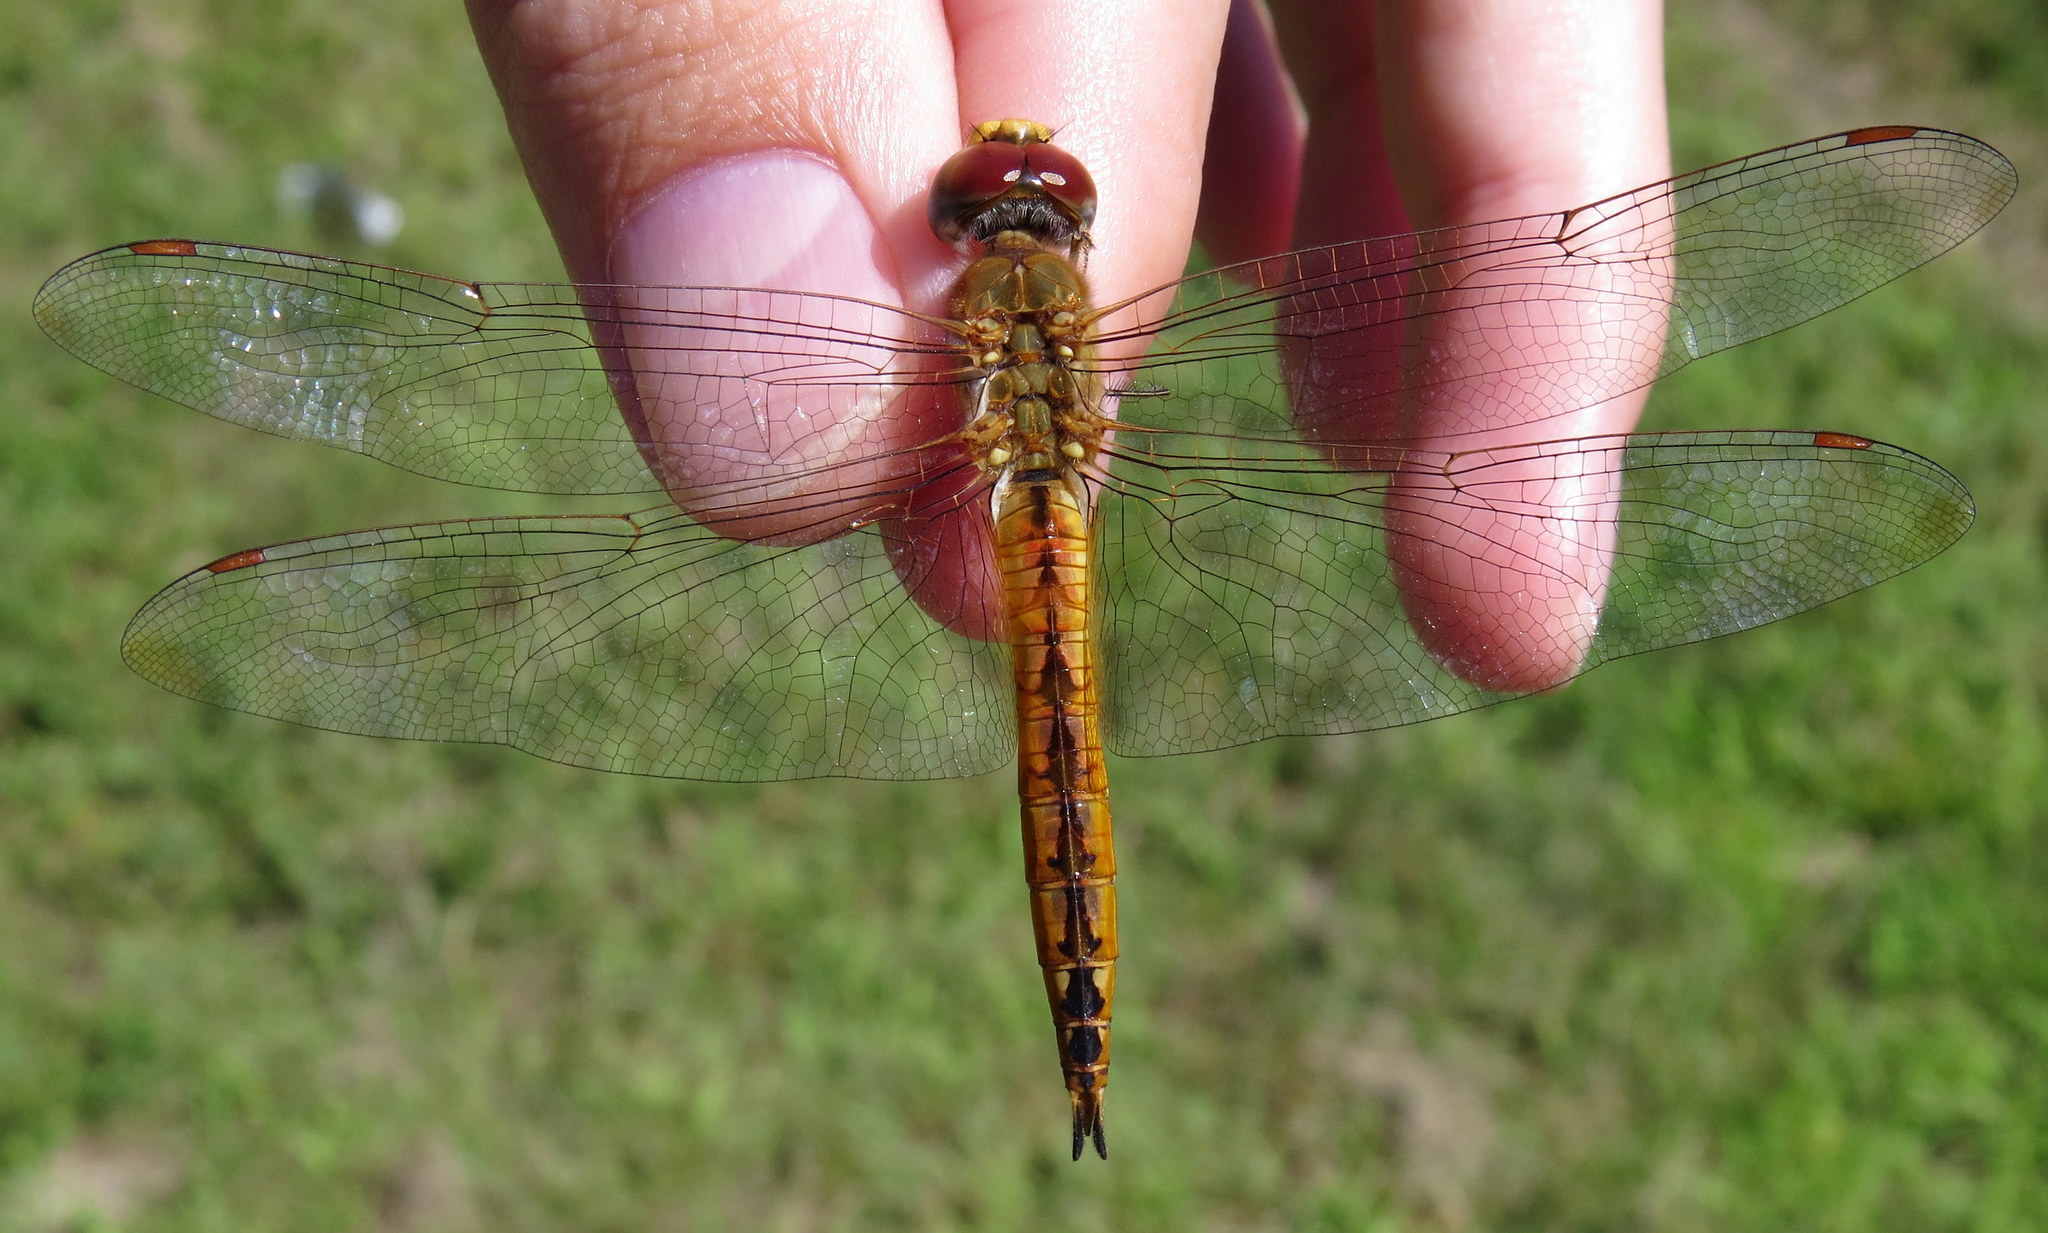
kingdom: Animalia
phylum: Arthropoda
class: Insecta
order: Odonata
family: Libellulidae
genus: Pantala
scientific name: Pantala flavescens
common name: Wandering glider
